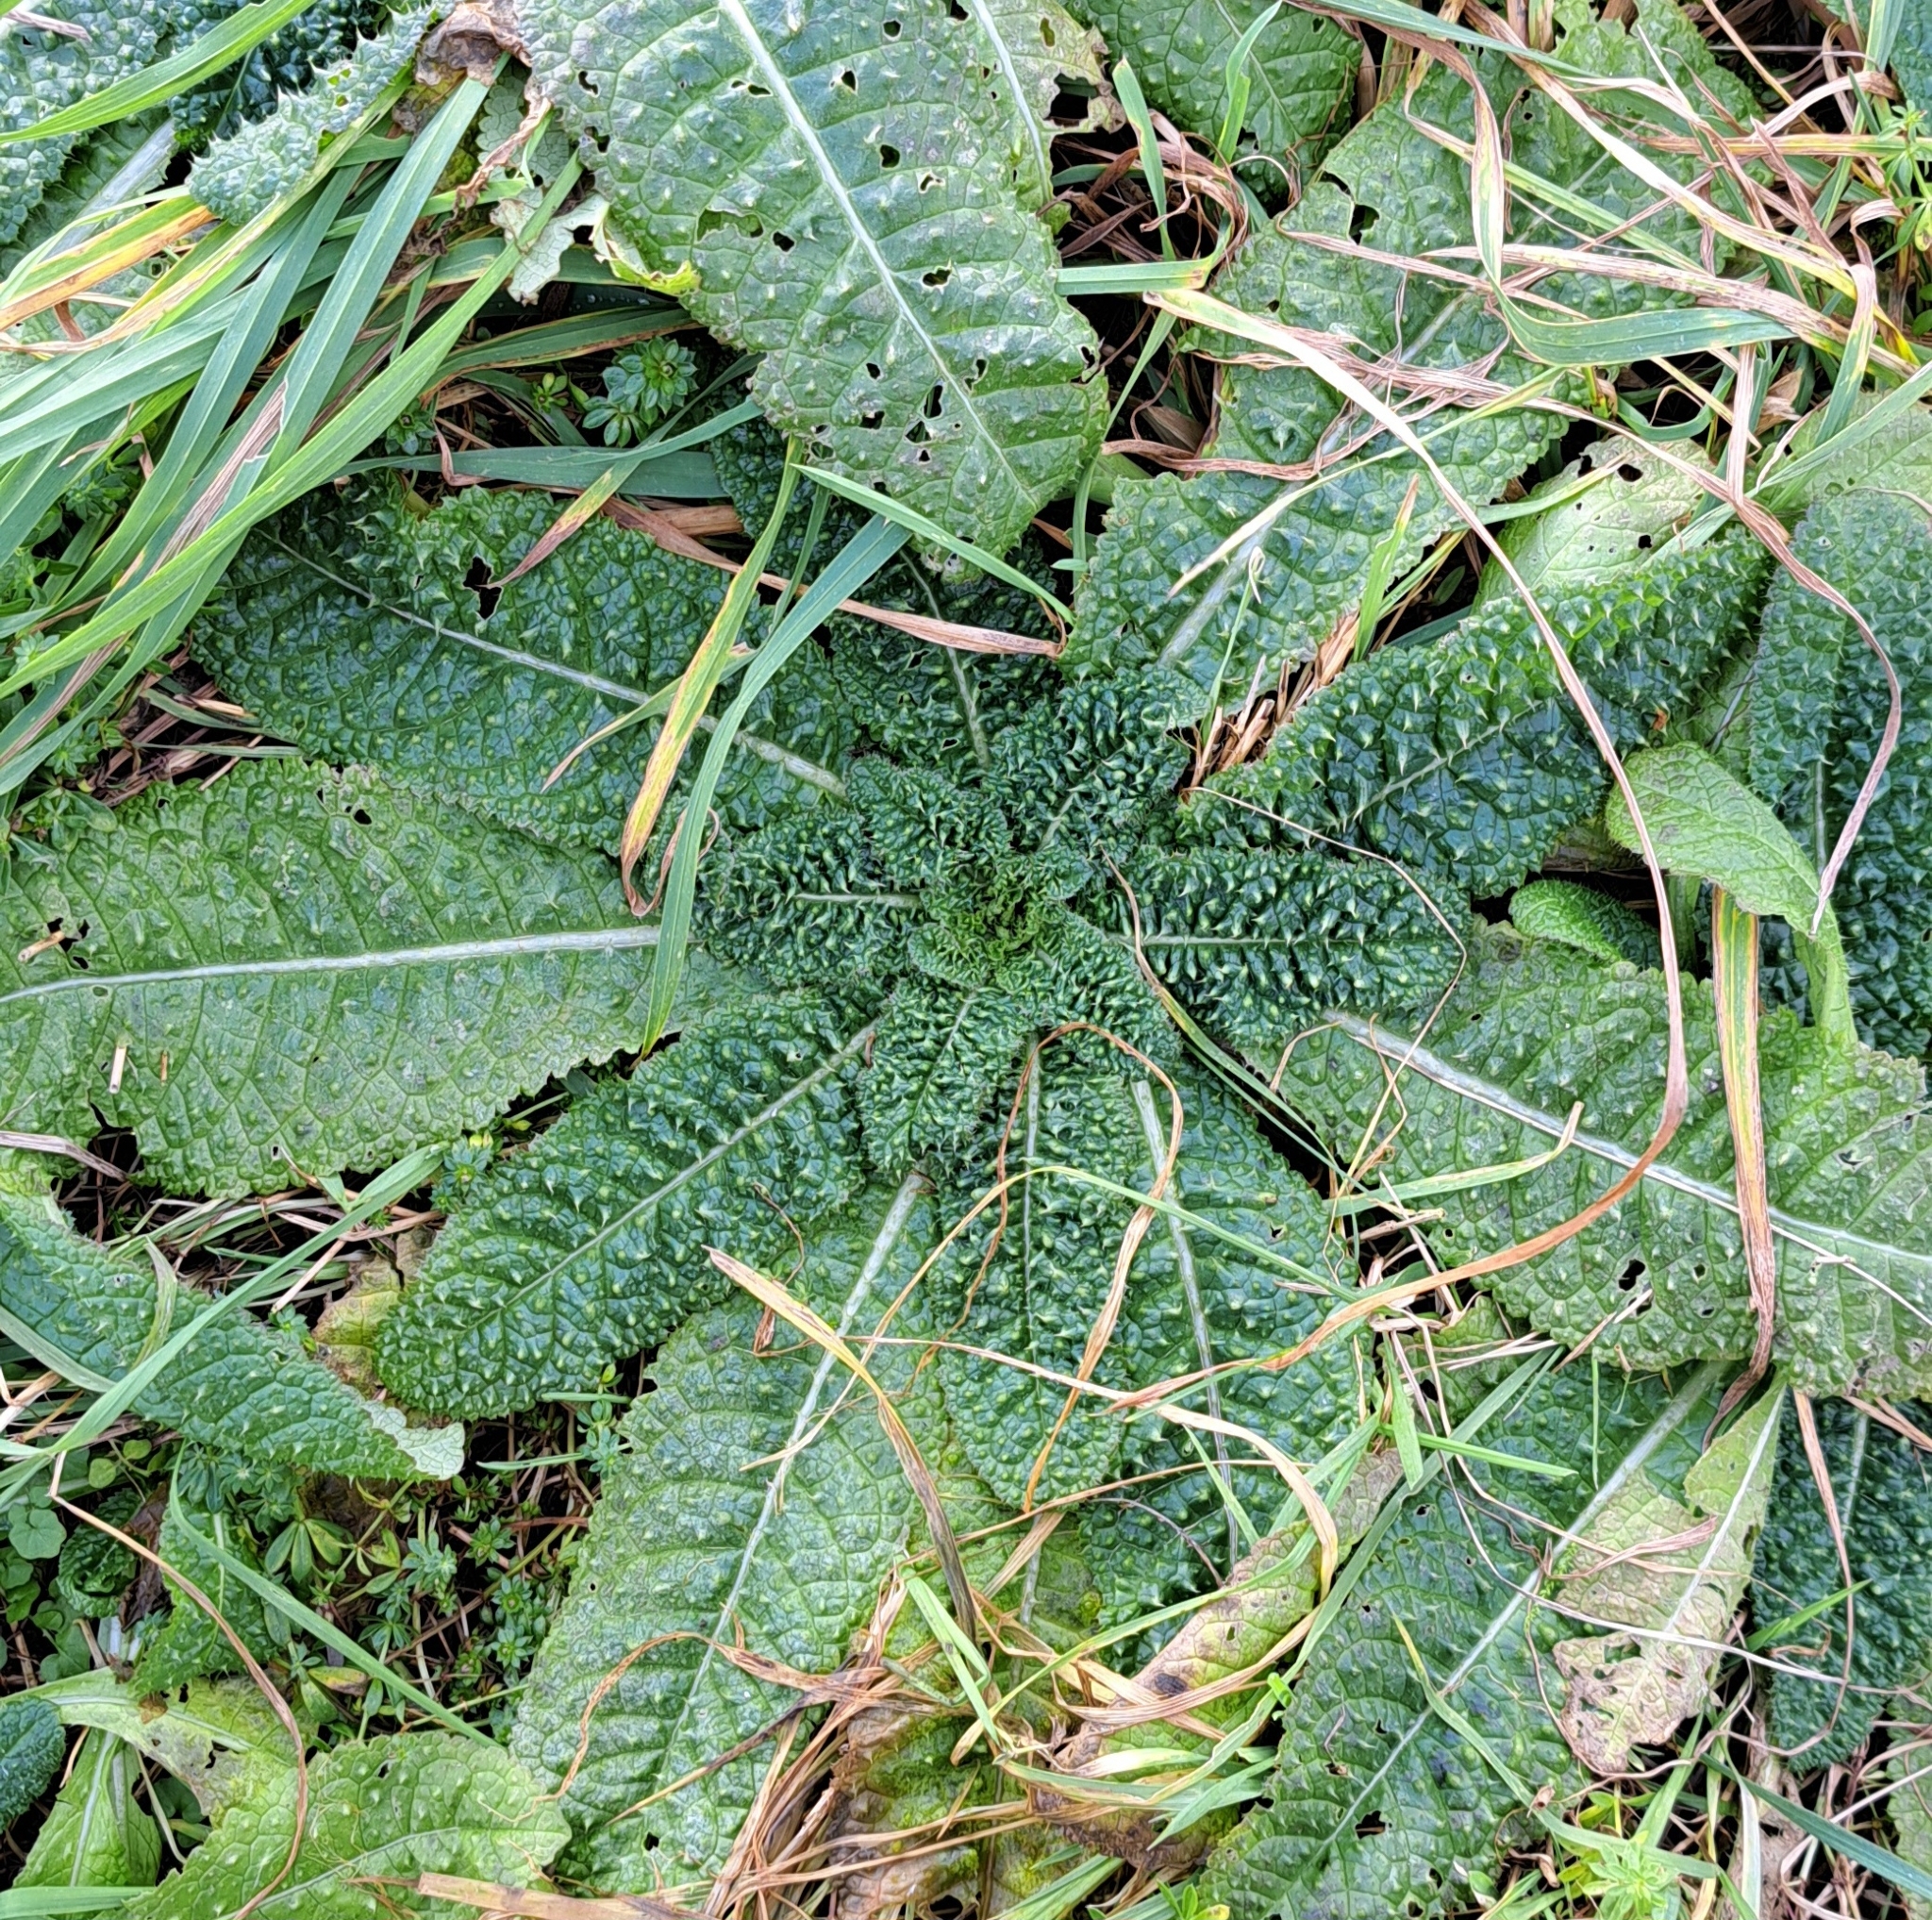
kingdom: Plantae
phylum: Tracheophyta
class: Magnoliopsida
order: Dipsacales
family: Caprifoliaceae
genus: Dipsacus
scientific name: Dipsacus fullonum
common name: Teasel
